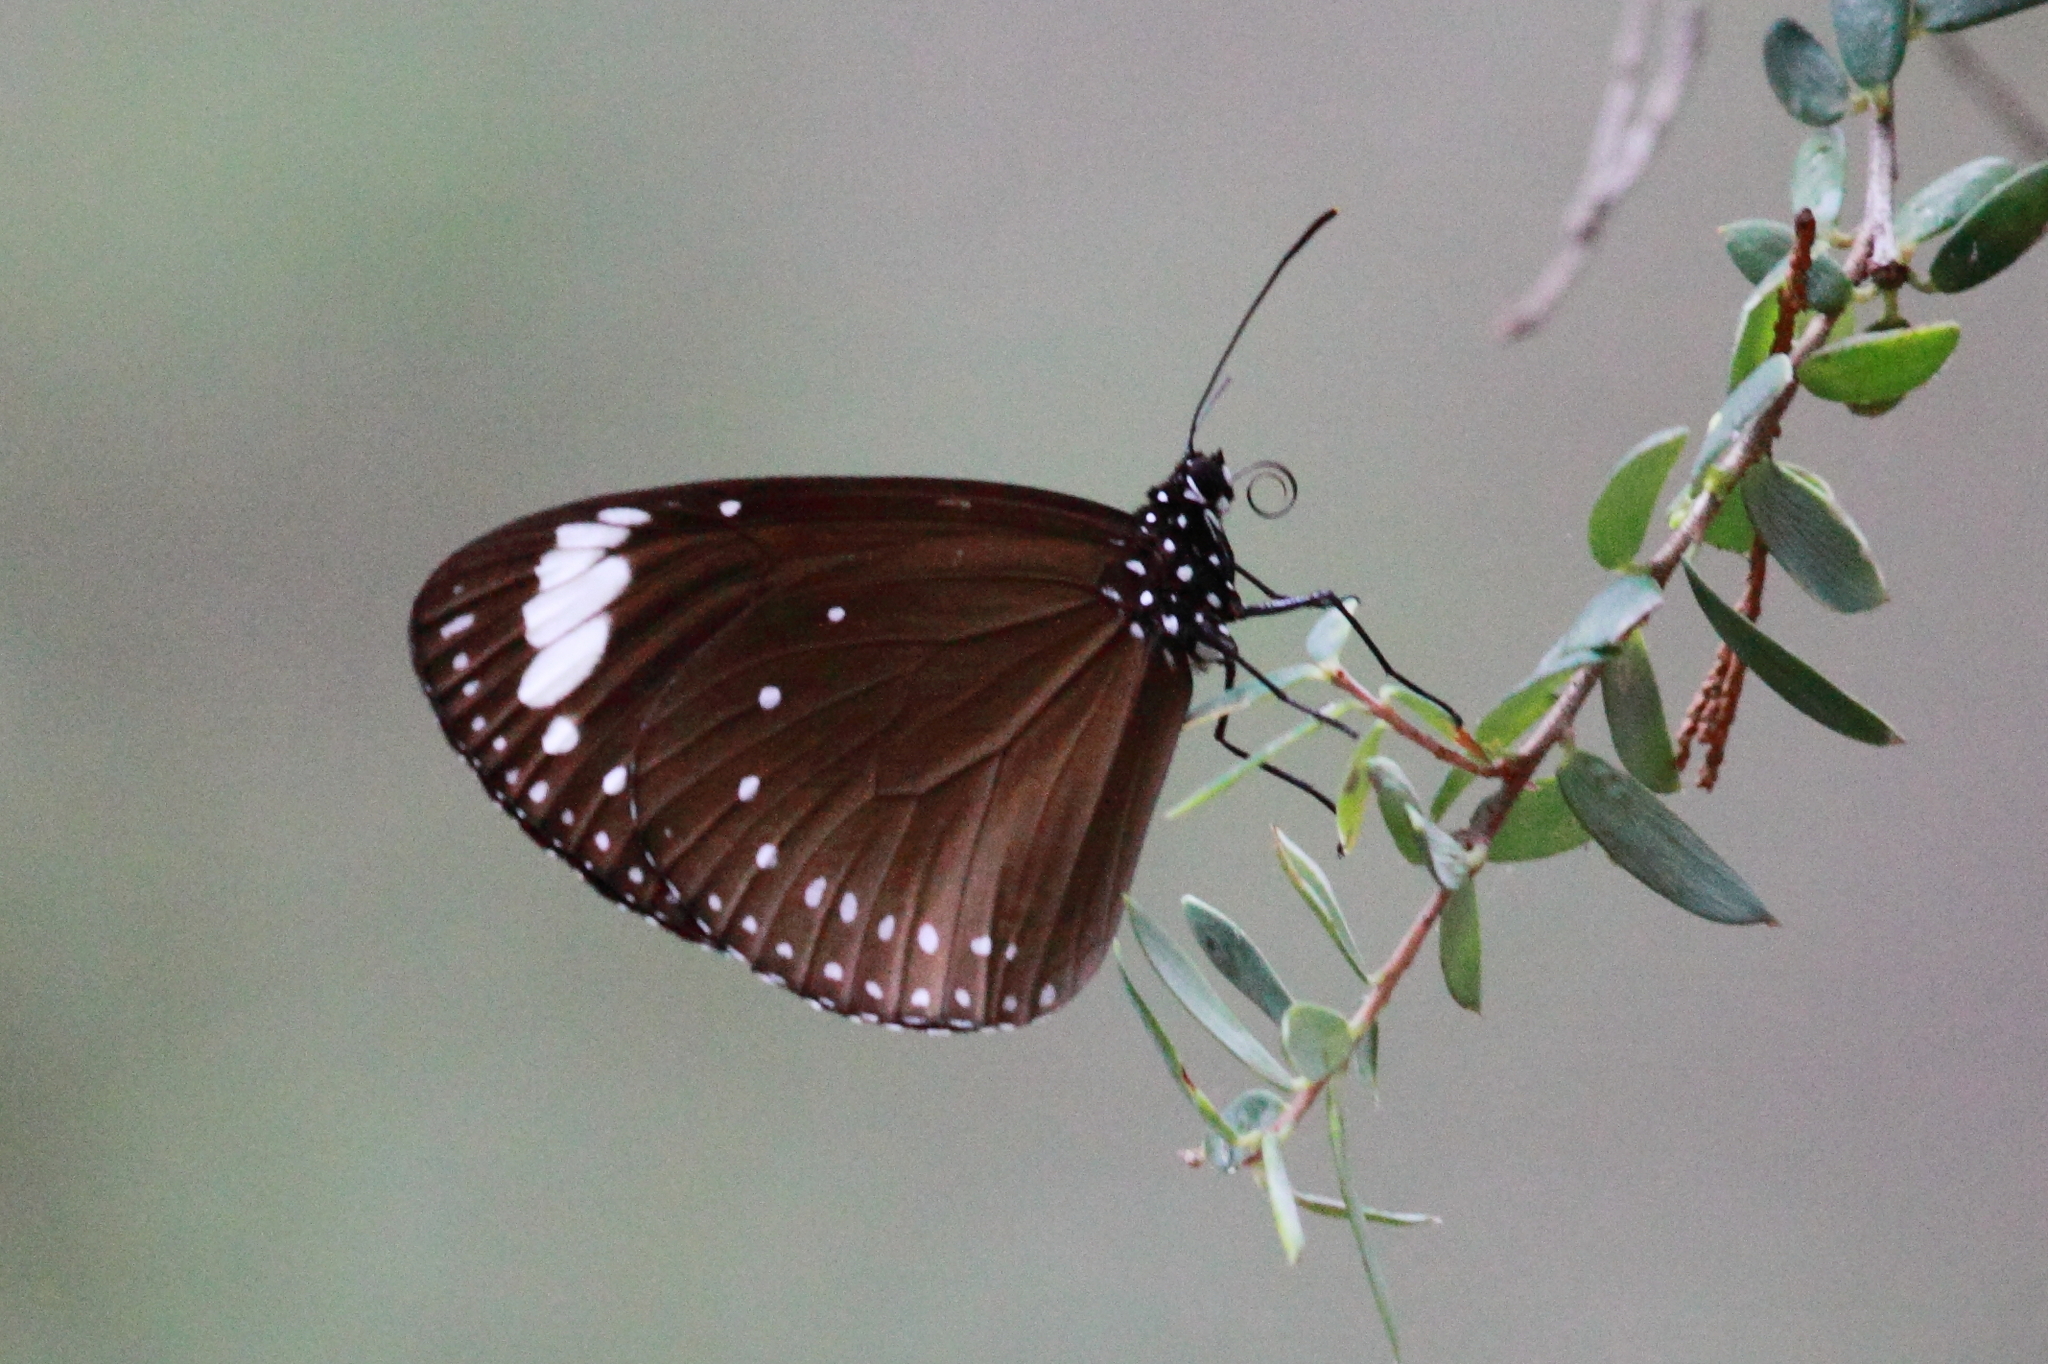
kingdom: Animalia
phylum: Arthropoda
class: Insecta
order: Lepidoptera
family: Nymphalidae
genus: Euploea
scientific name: Euploea tulliolus
